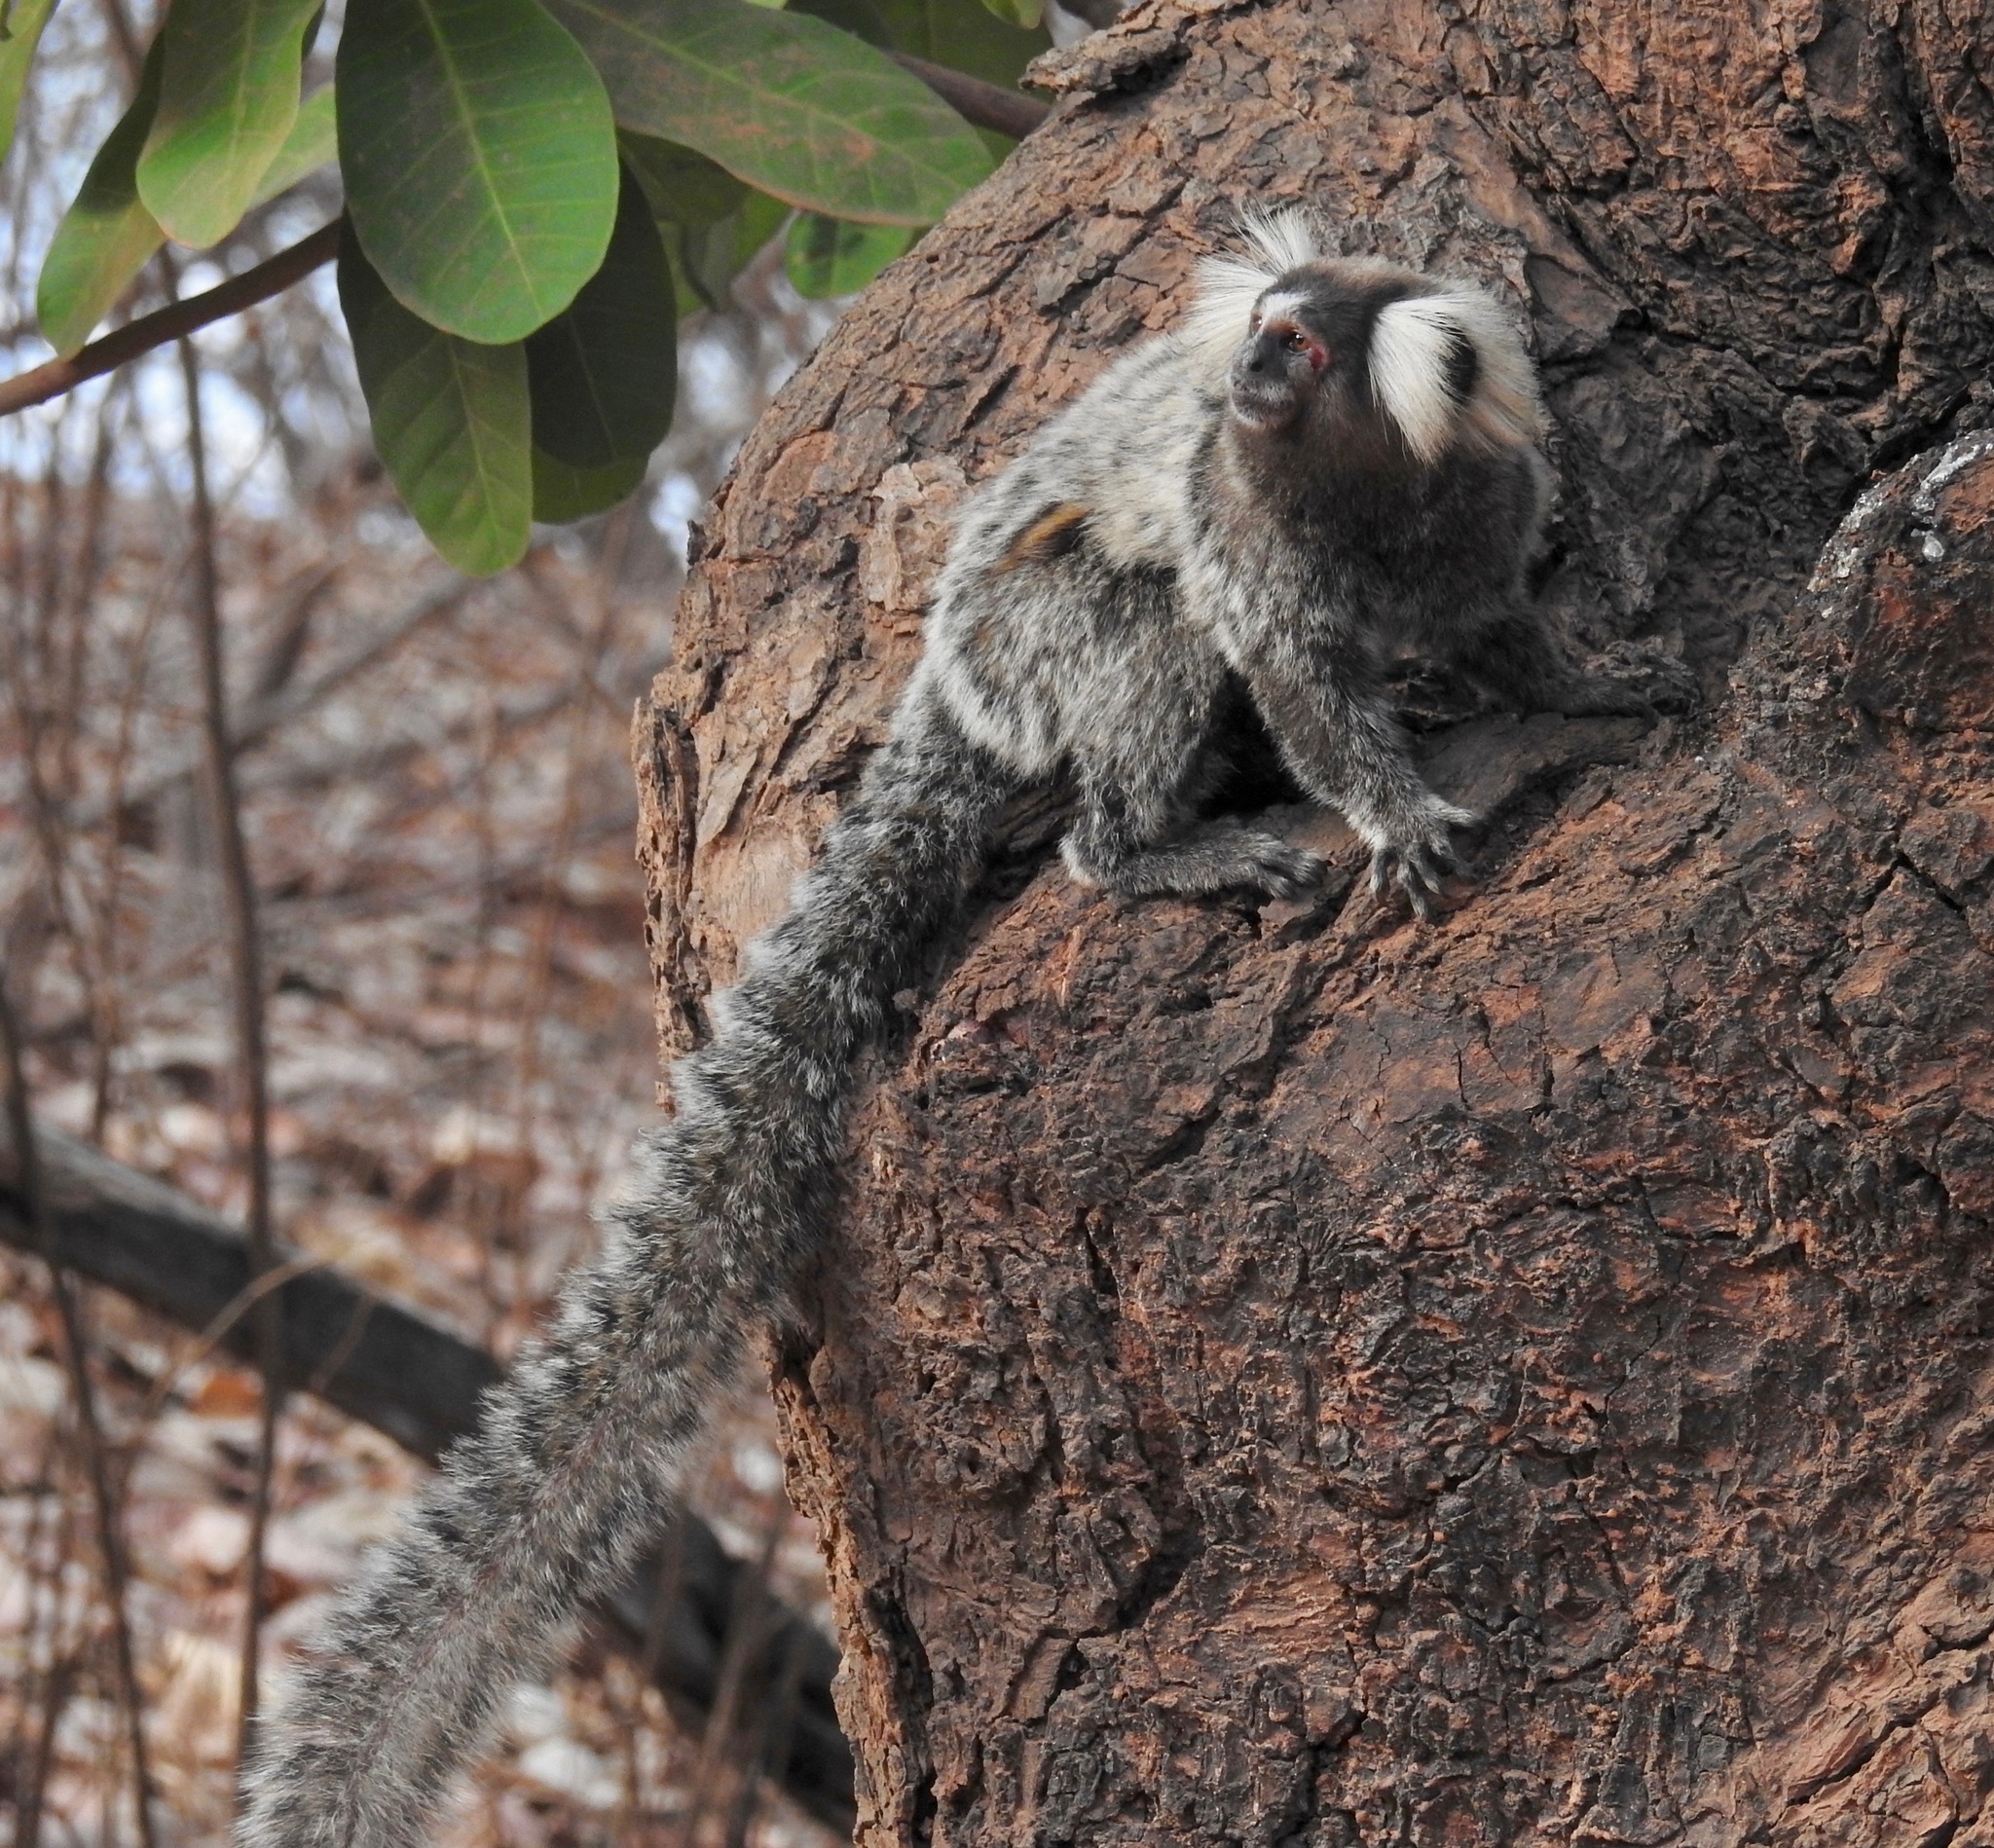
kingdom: Animalia
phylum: Chordata
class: Mammalia
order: Primates
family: Callitrichidae
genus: Callithrix
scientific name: Callithrix jacchus
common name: Common marmoset
